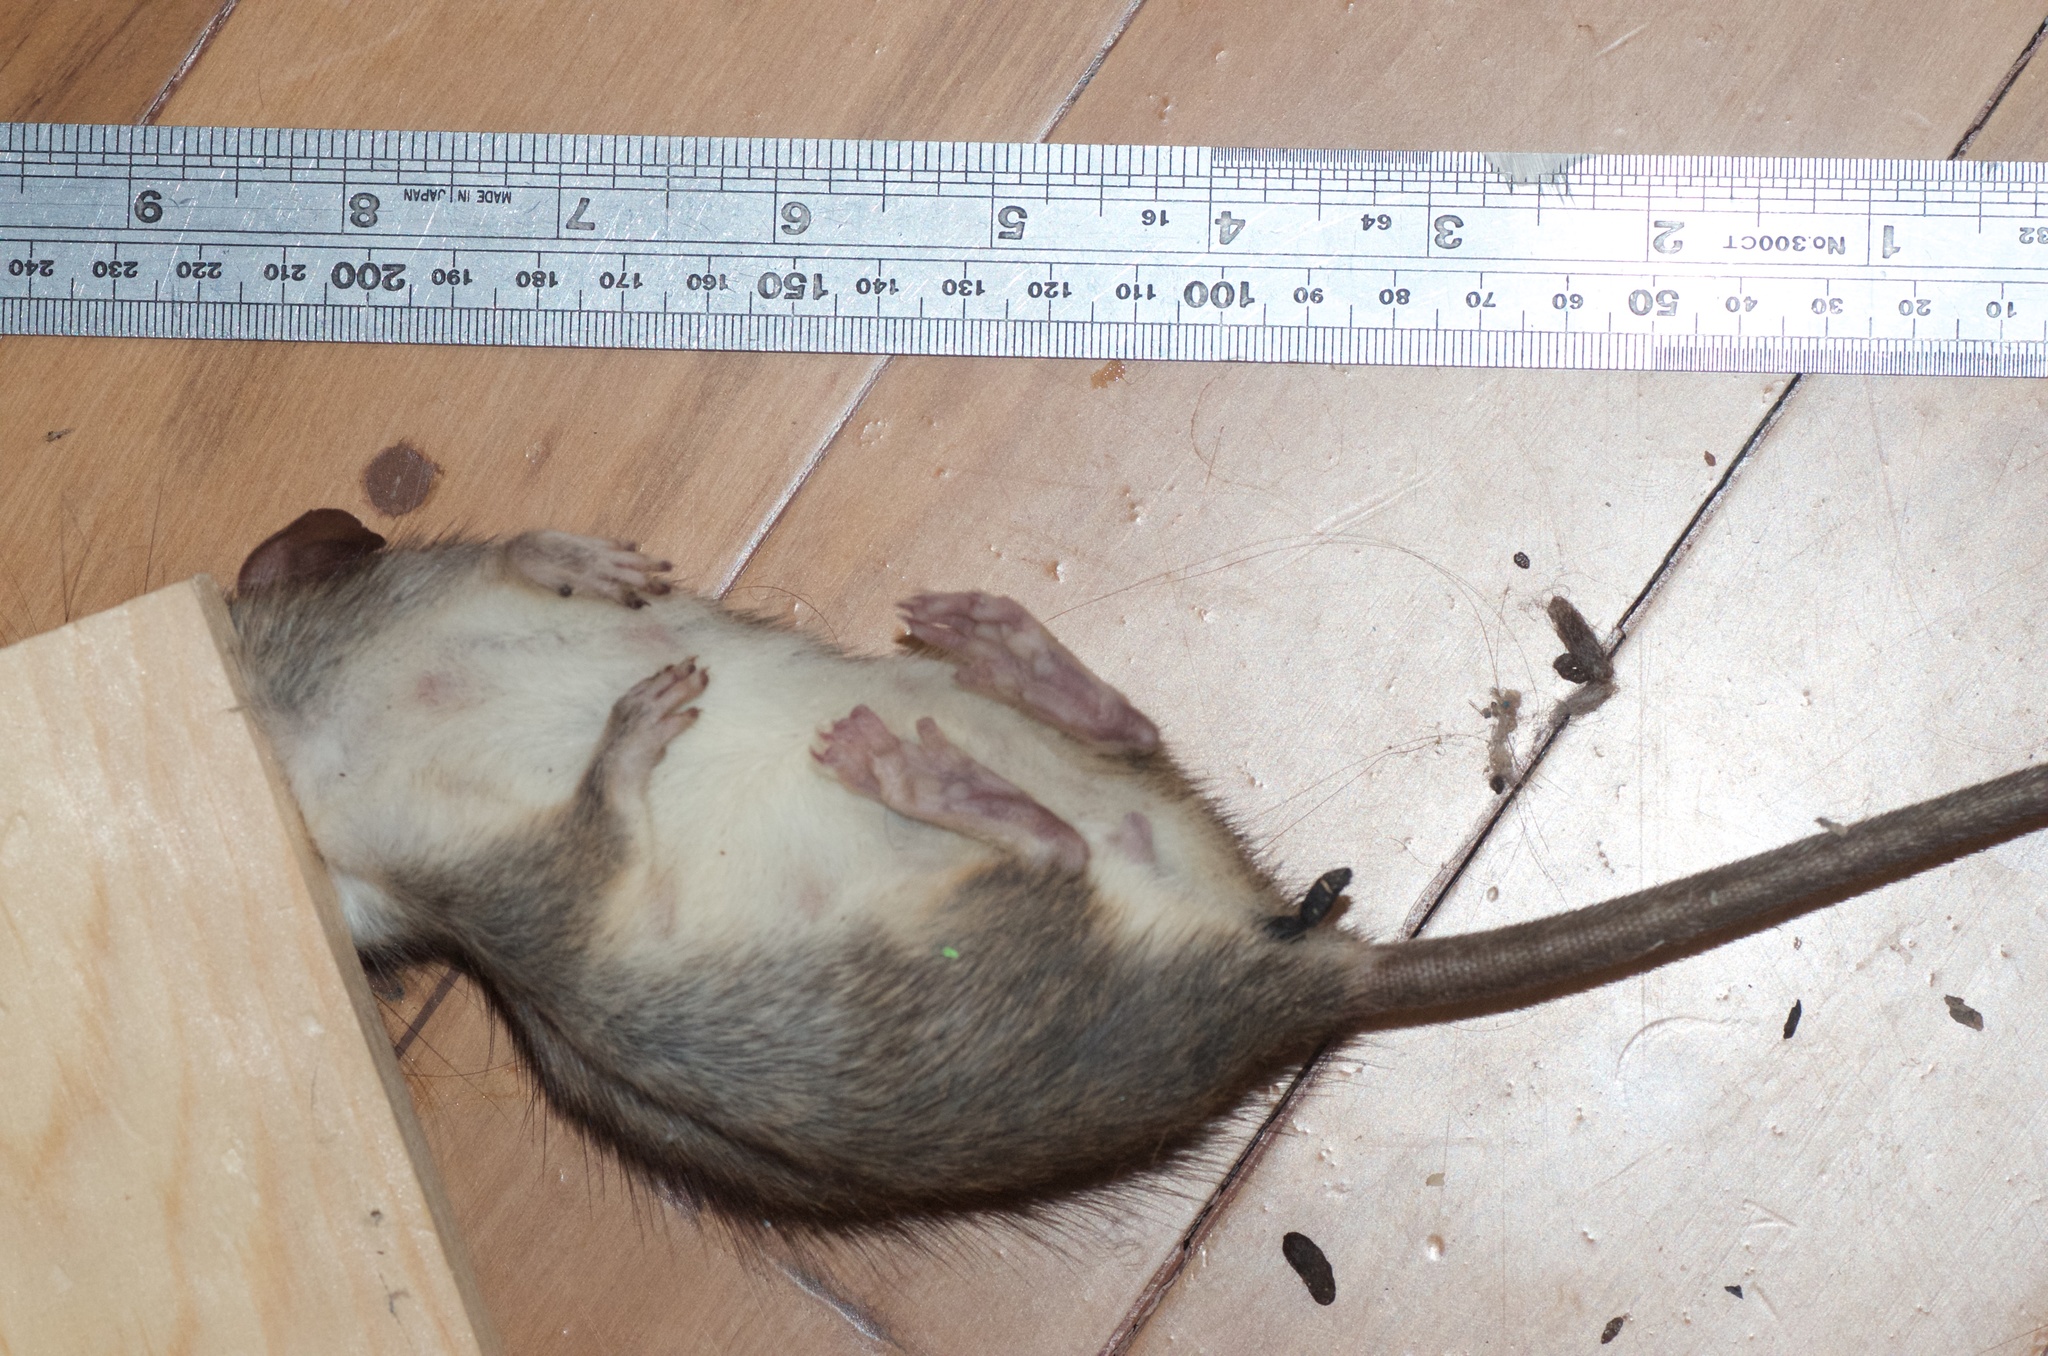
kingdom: Animalia
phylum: Chordata
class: Mammalia
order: Rodentia
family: Muridae
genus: Rattus
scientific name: Rattus rattus
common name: Black rat
